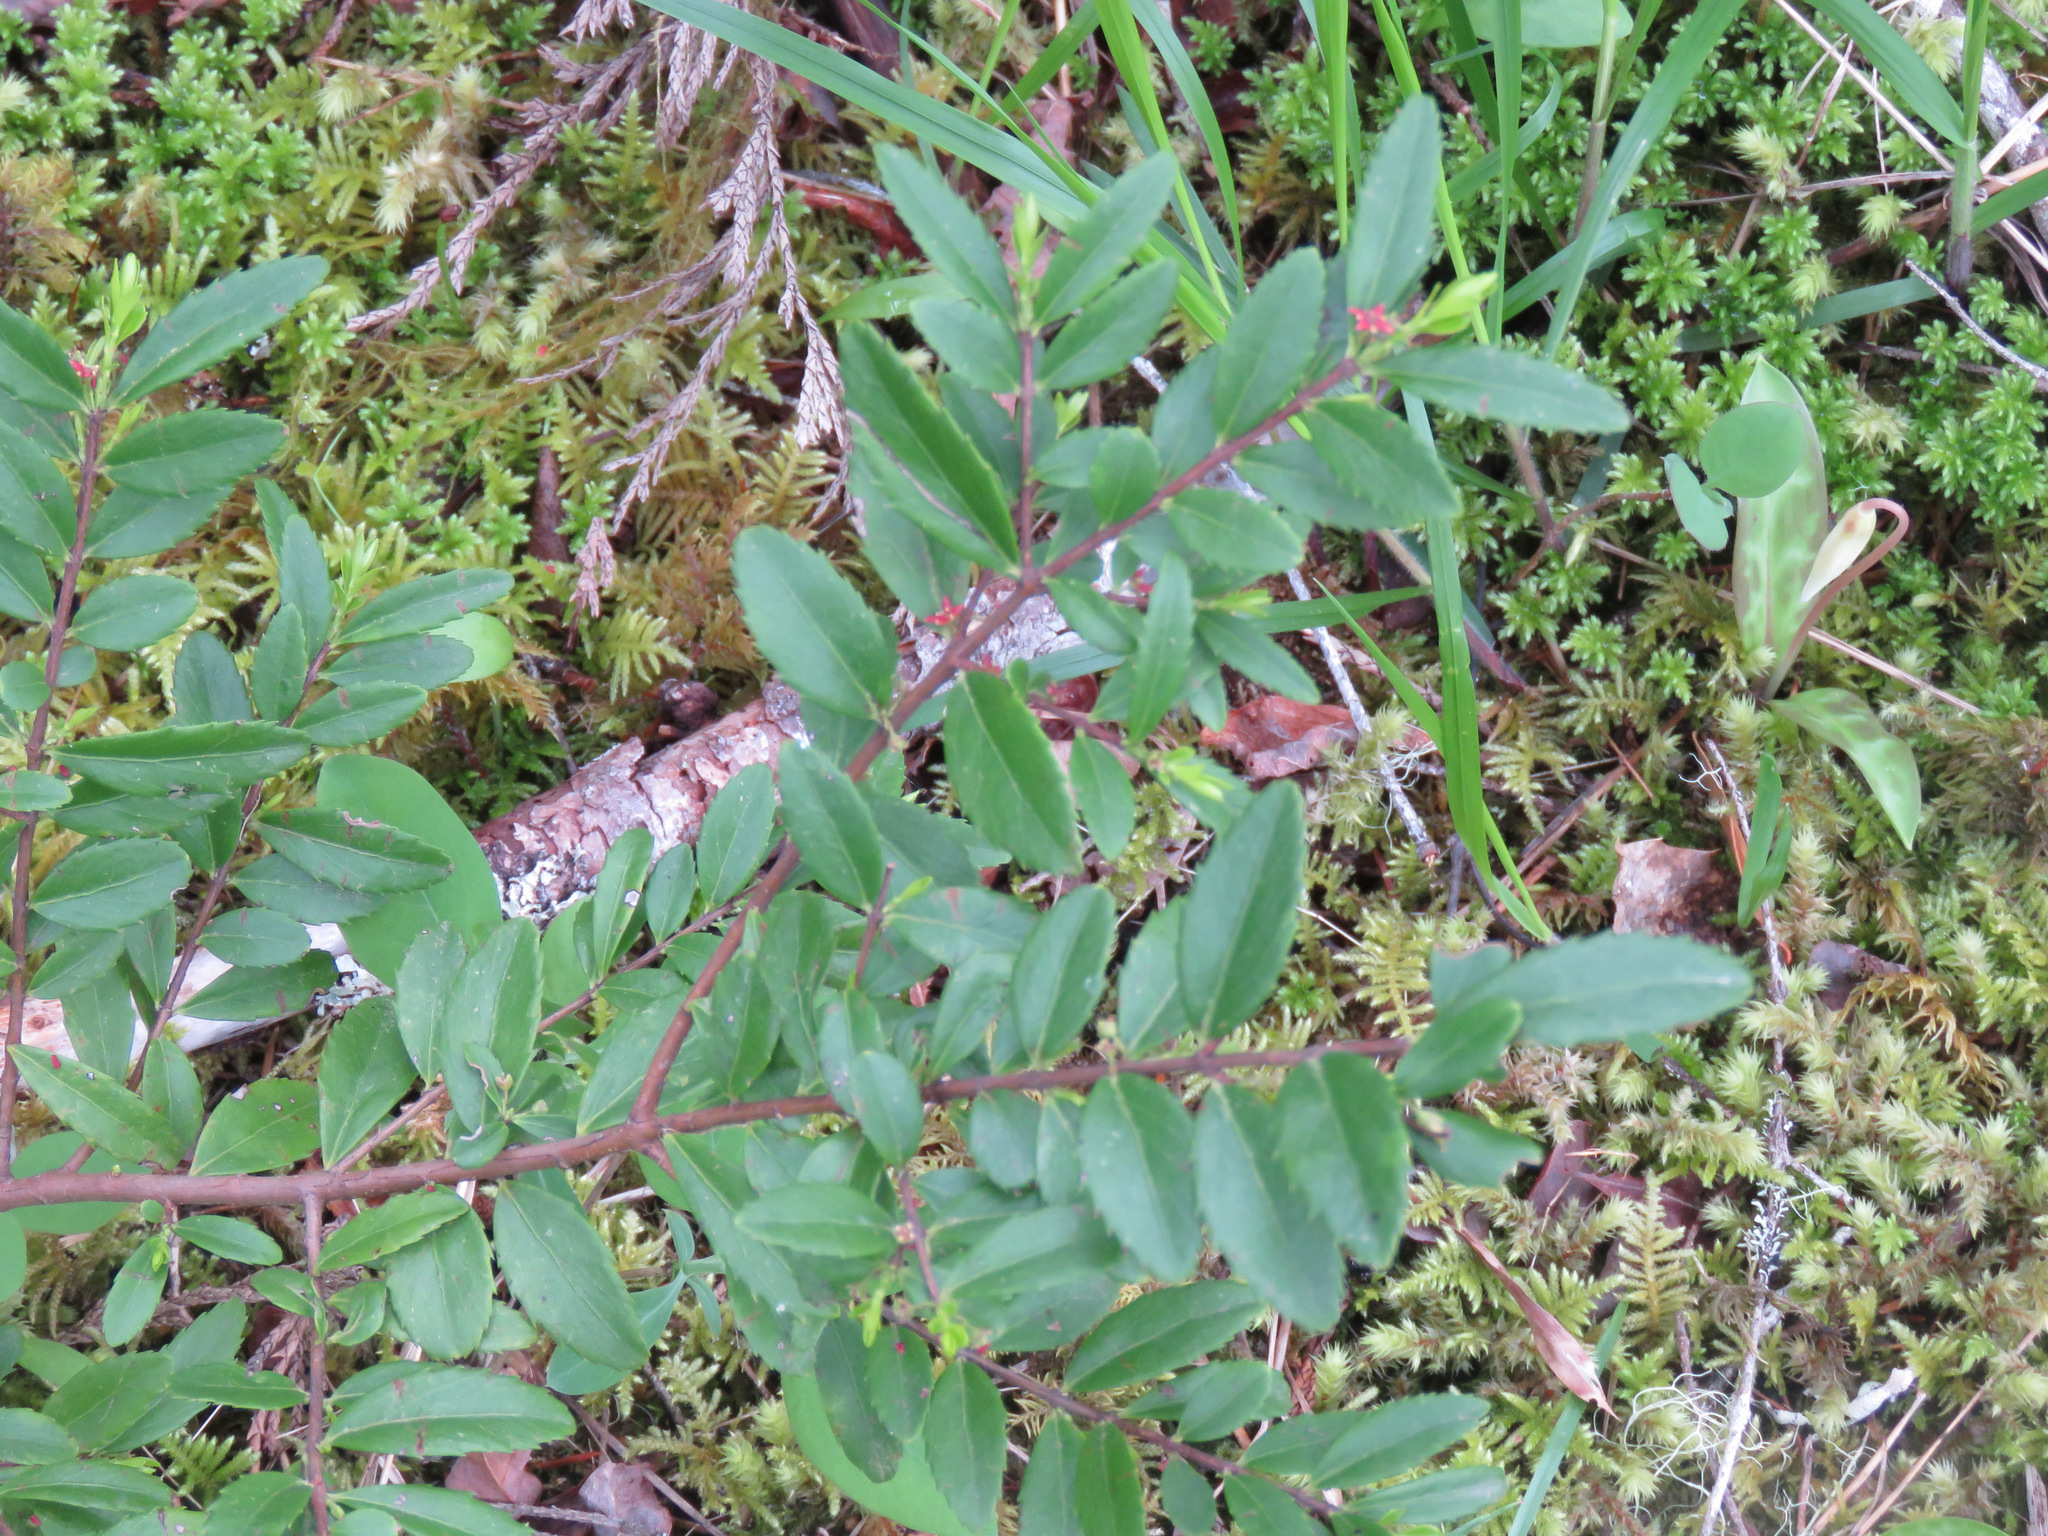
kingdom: Plantae
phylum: Tracheophyta
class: Magnoliopsida
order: Celastrales
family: Celastraceae
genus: Paxistima
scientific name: Paxistima myrsinites
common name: Mountain-lover
